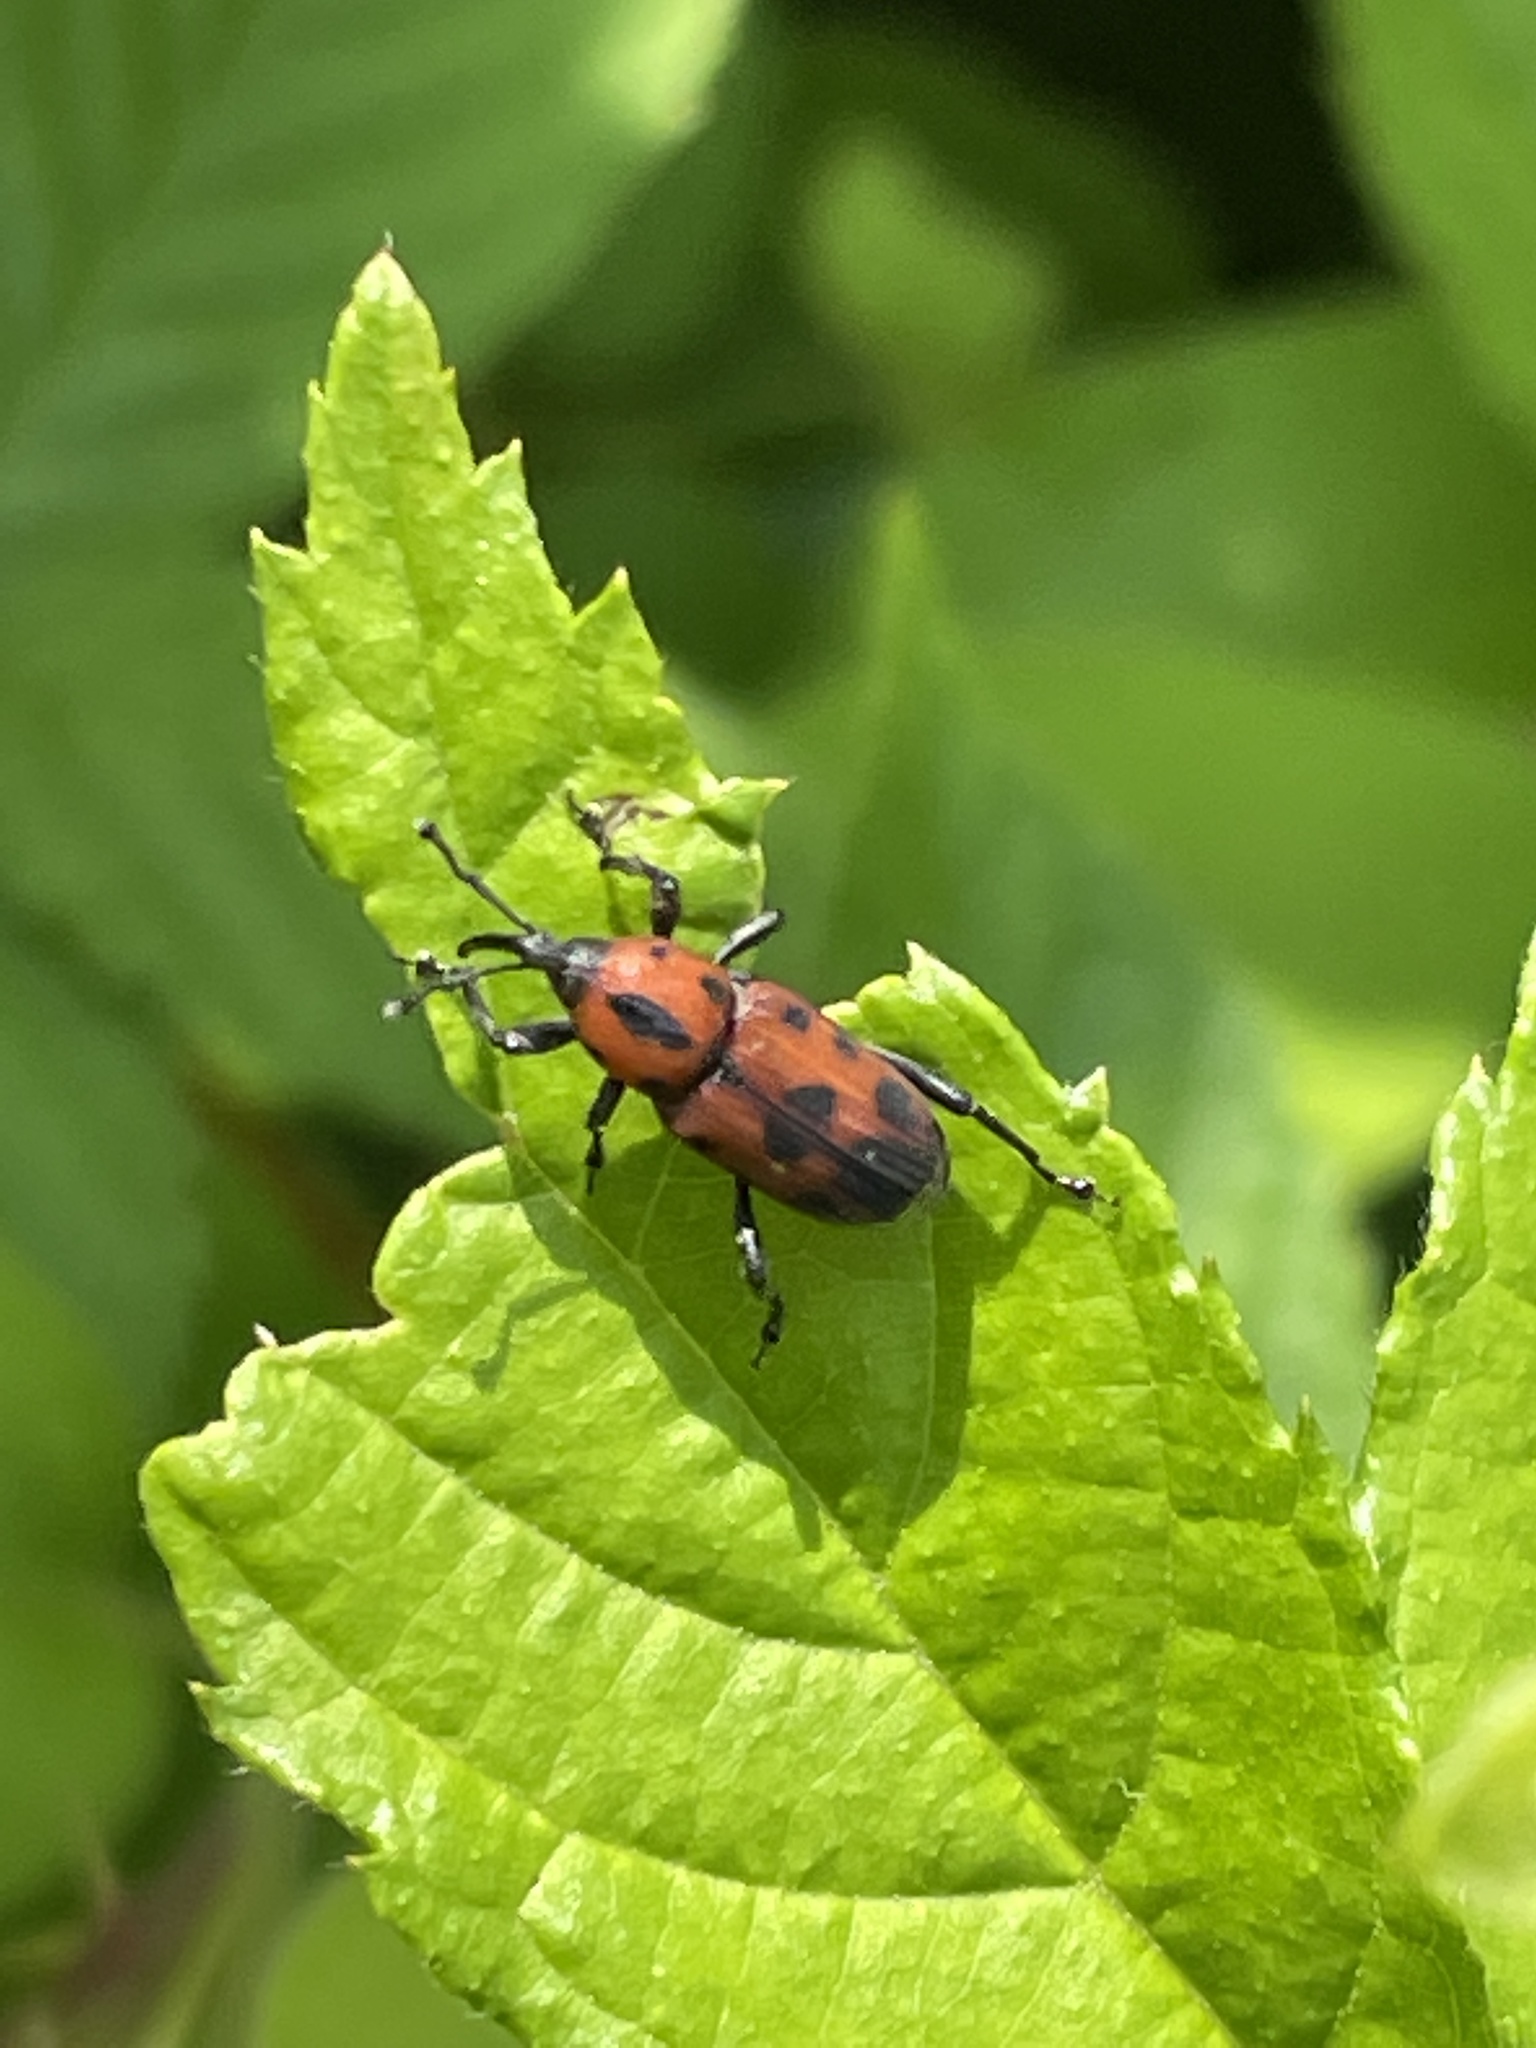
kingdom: Animalia
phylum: Arthropoda
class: Insecta
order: Coleoptera
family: Dryophthoridae
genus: Rhodobaenus
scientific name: Rhodobaenus quinquepunctatus
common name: Cocklebur weevil
